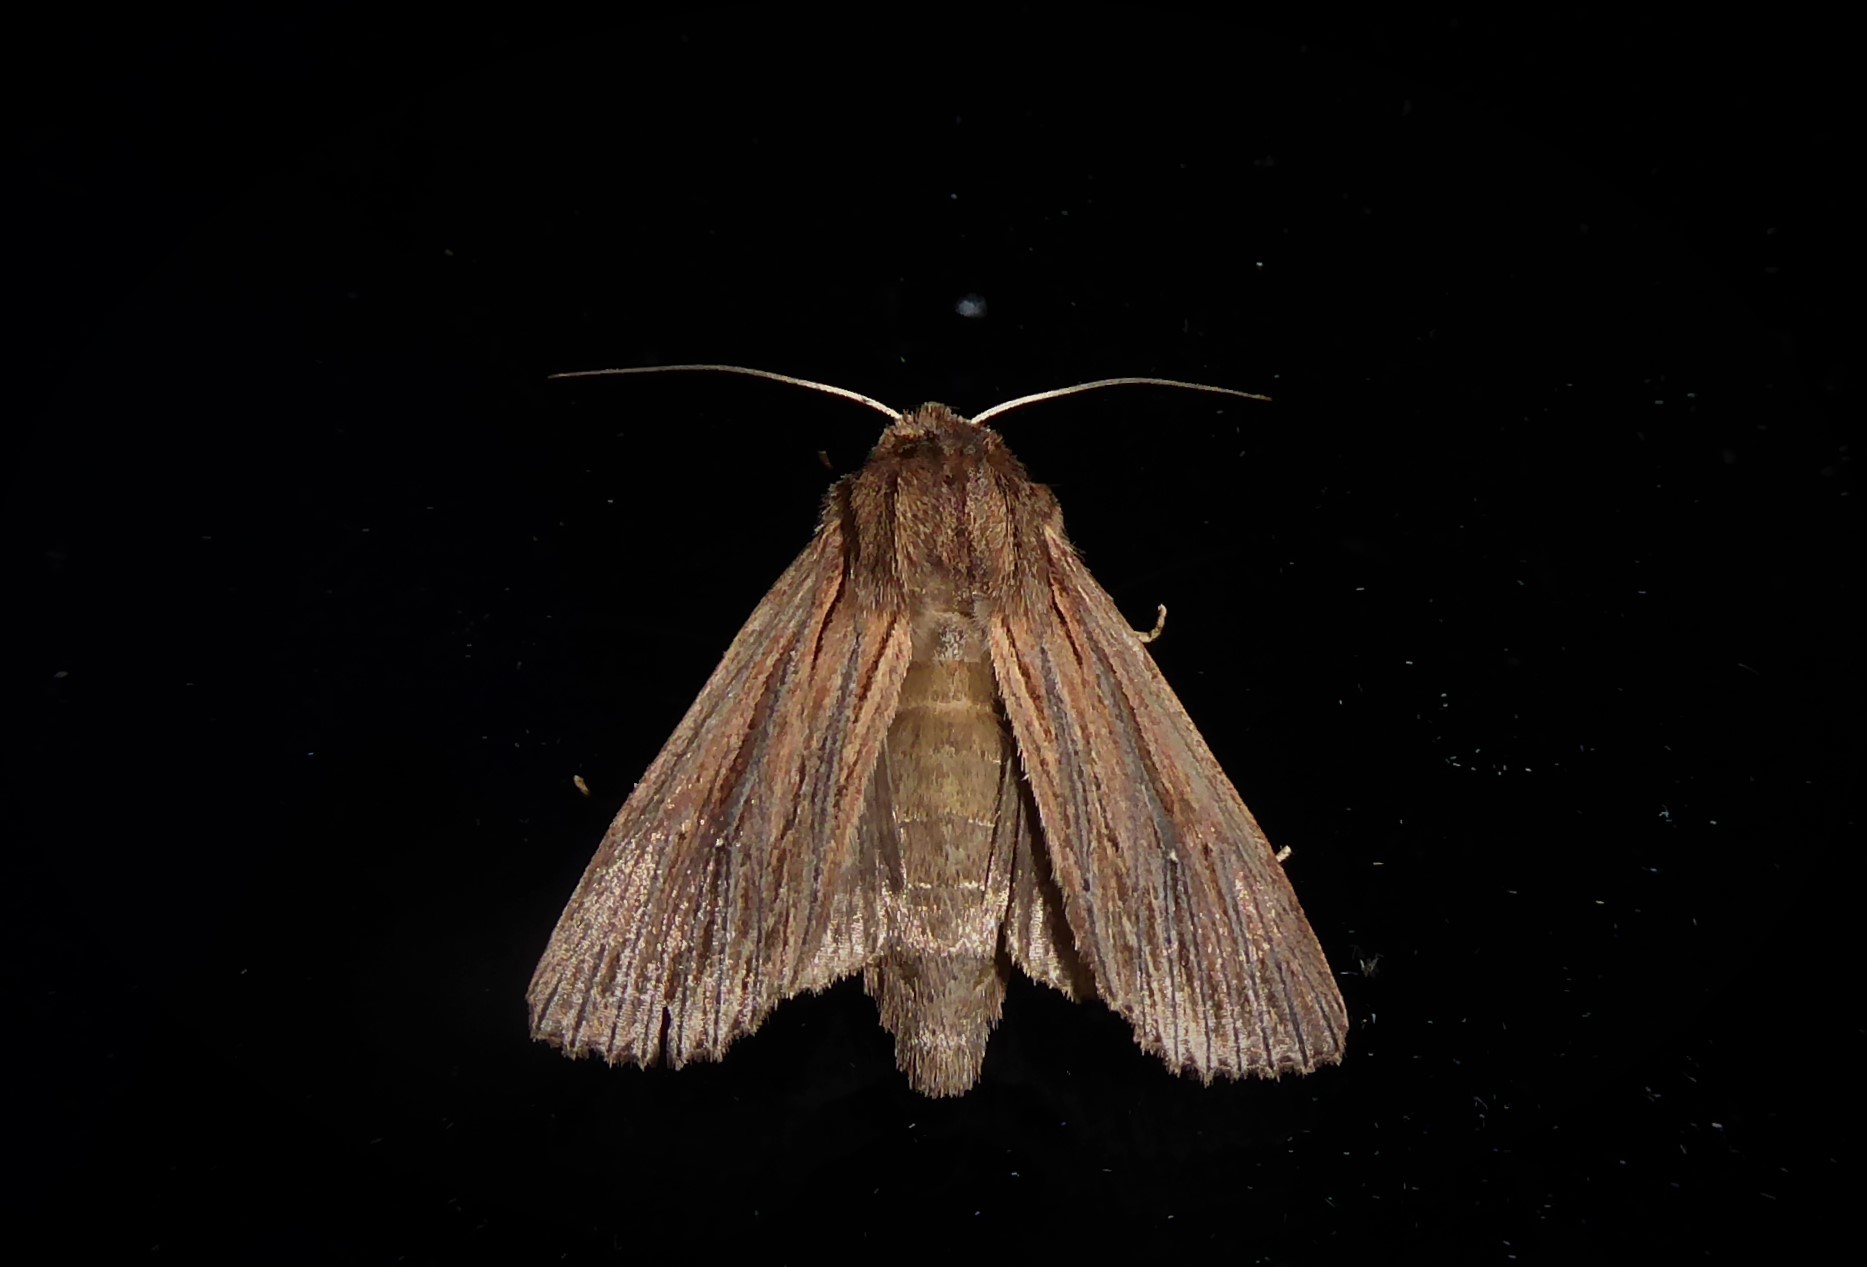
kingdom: Animalia
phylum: Arthropoda
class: Insecta
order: Lepidoptera
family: Noctuidae
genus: Ichneutica
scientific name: Ichneutica
